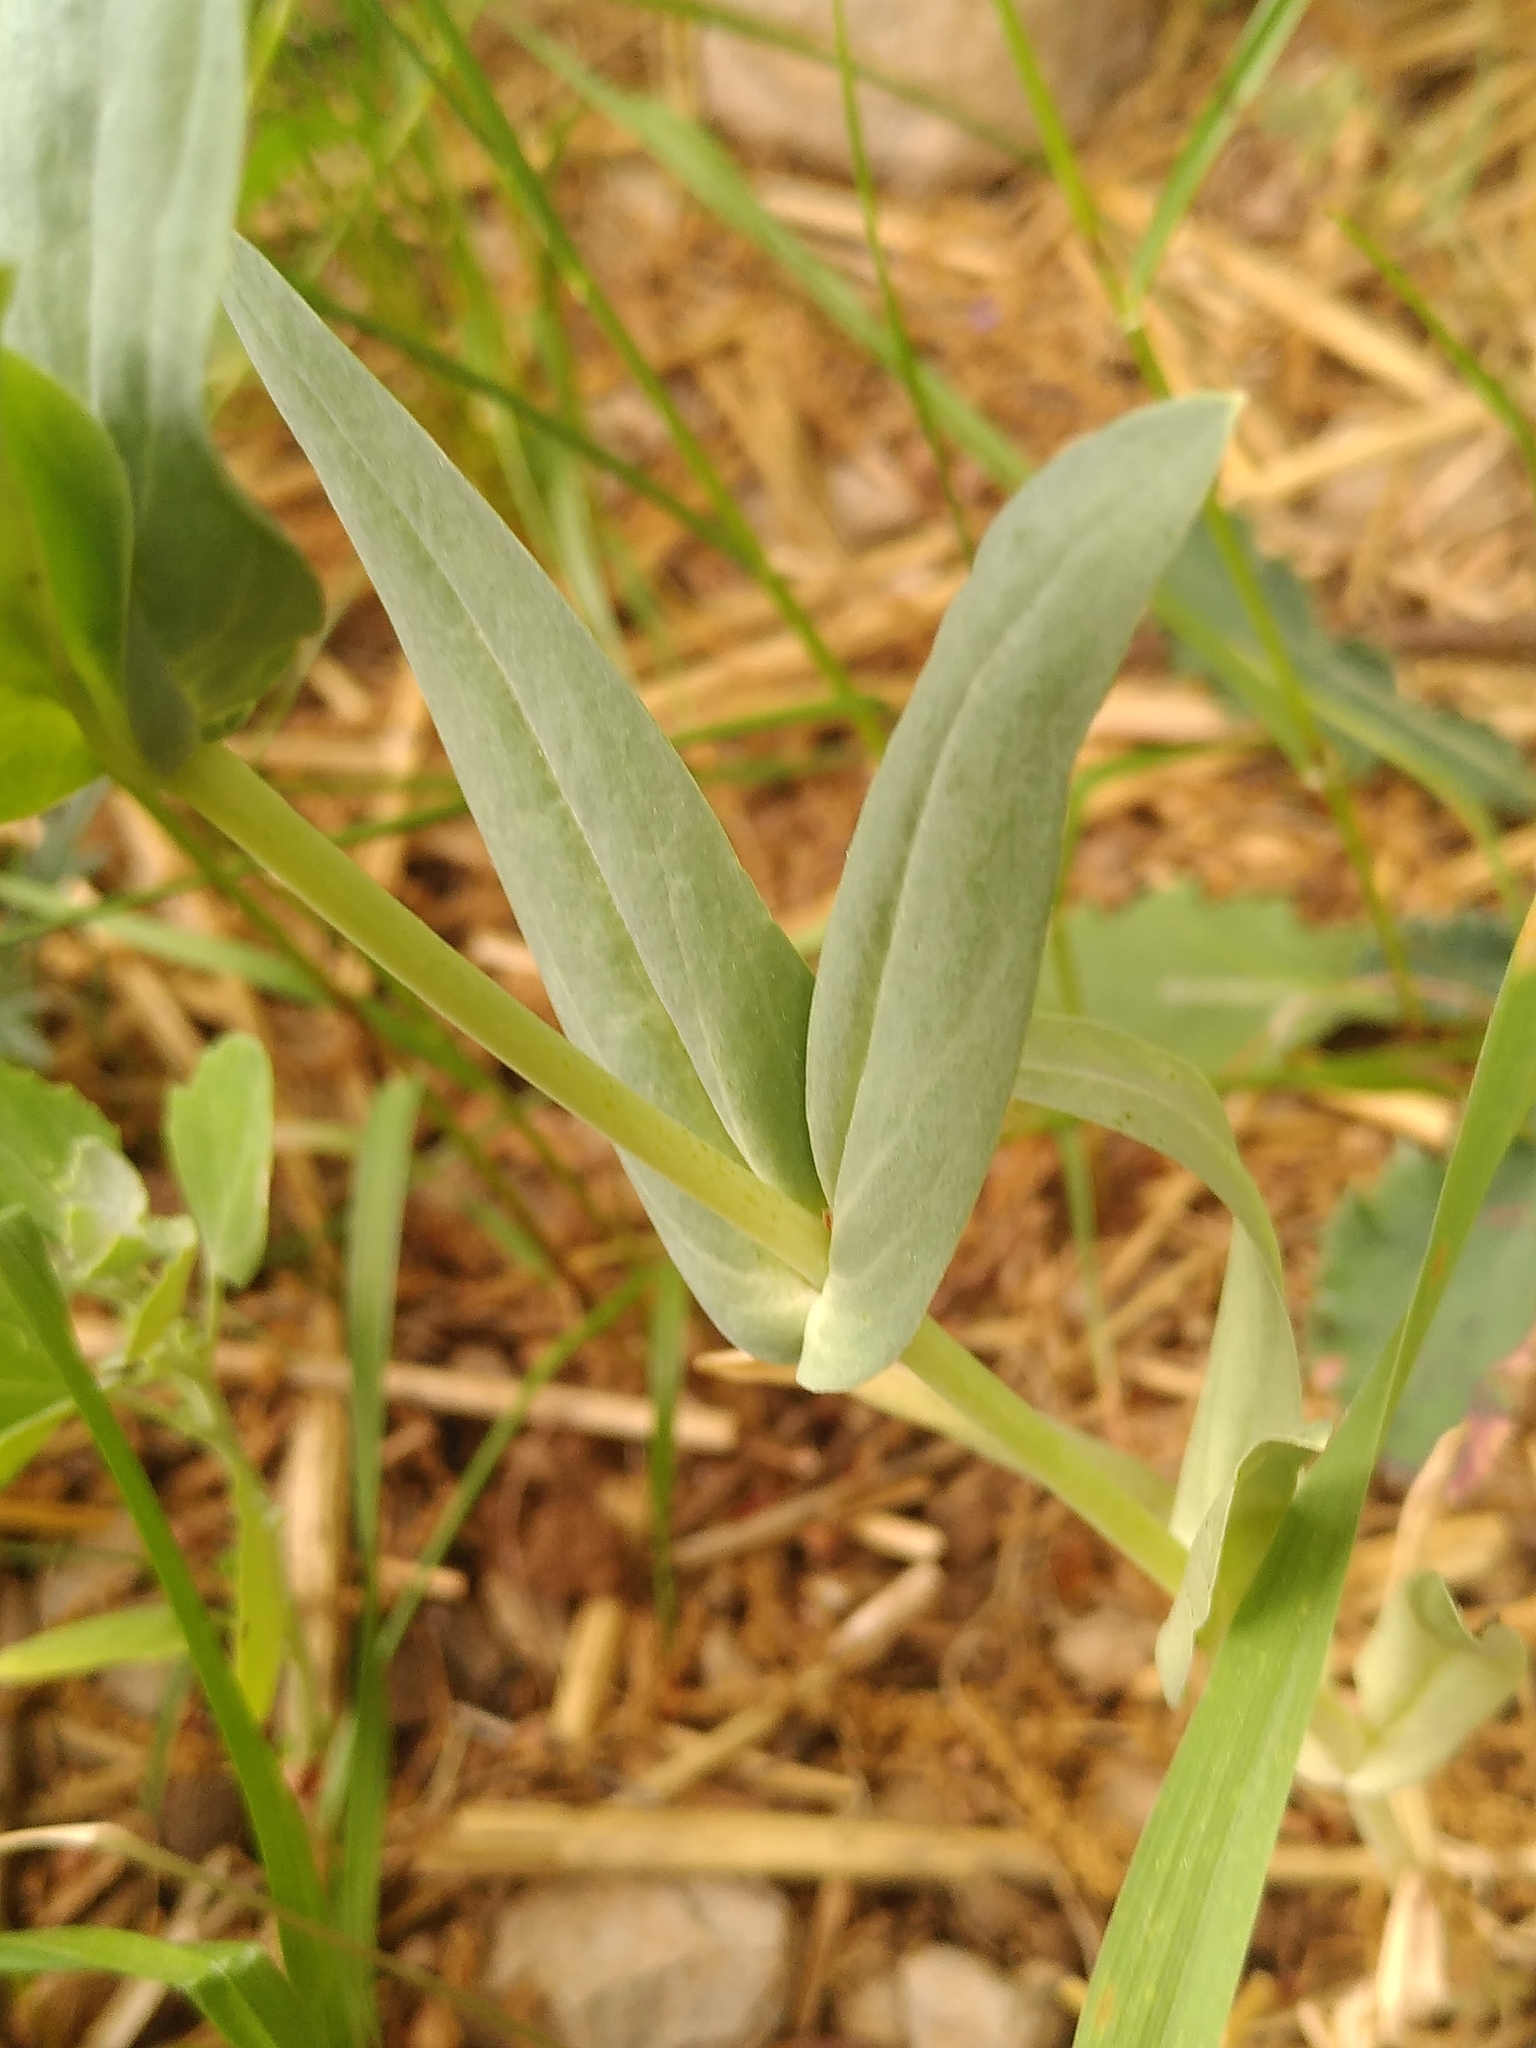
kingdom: Plantae
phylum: Tracheophyta
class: Magnoliopsida
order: Caryophyllales
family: Caryophyllaceae
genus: Gypsophila
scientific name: Gypsophila vaccaria
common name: Cow soapwort
